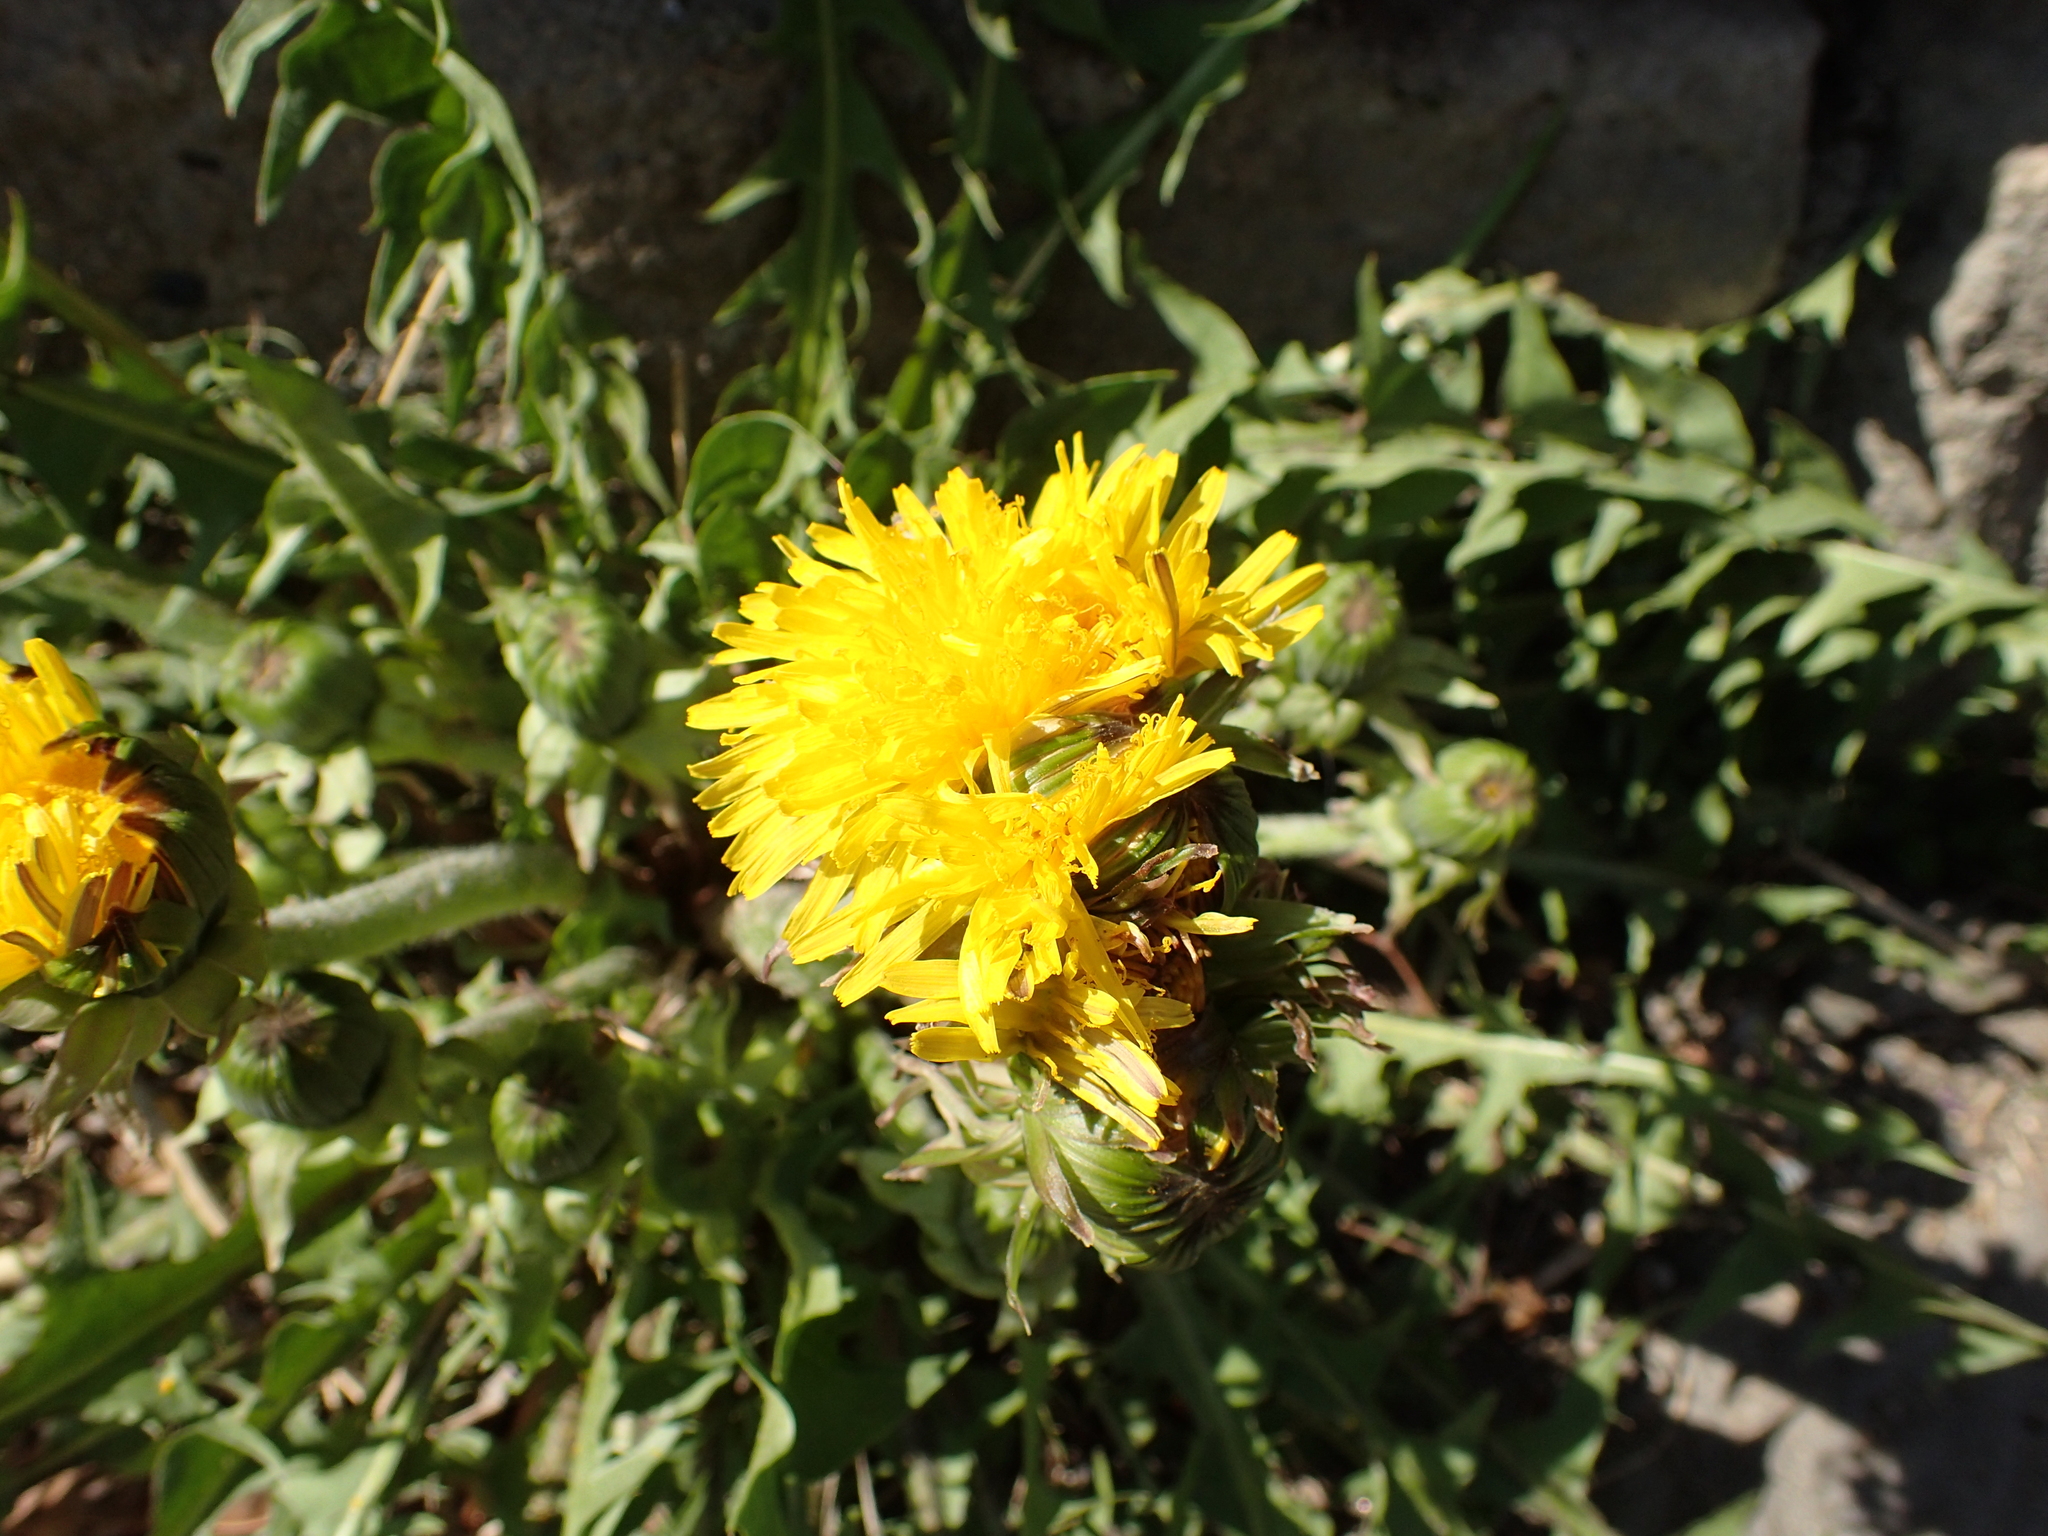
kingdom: Plantae
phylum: Tracheophyta
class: Magnoliopsida
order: Asterales
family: Asteraceae
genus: Taraxacum
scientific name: Taraxacum officinale
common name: Common dandelion
